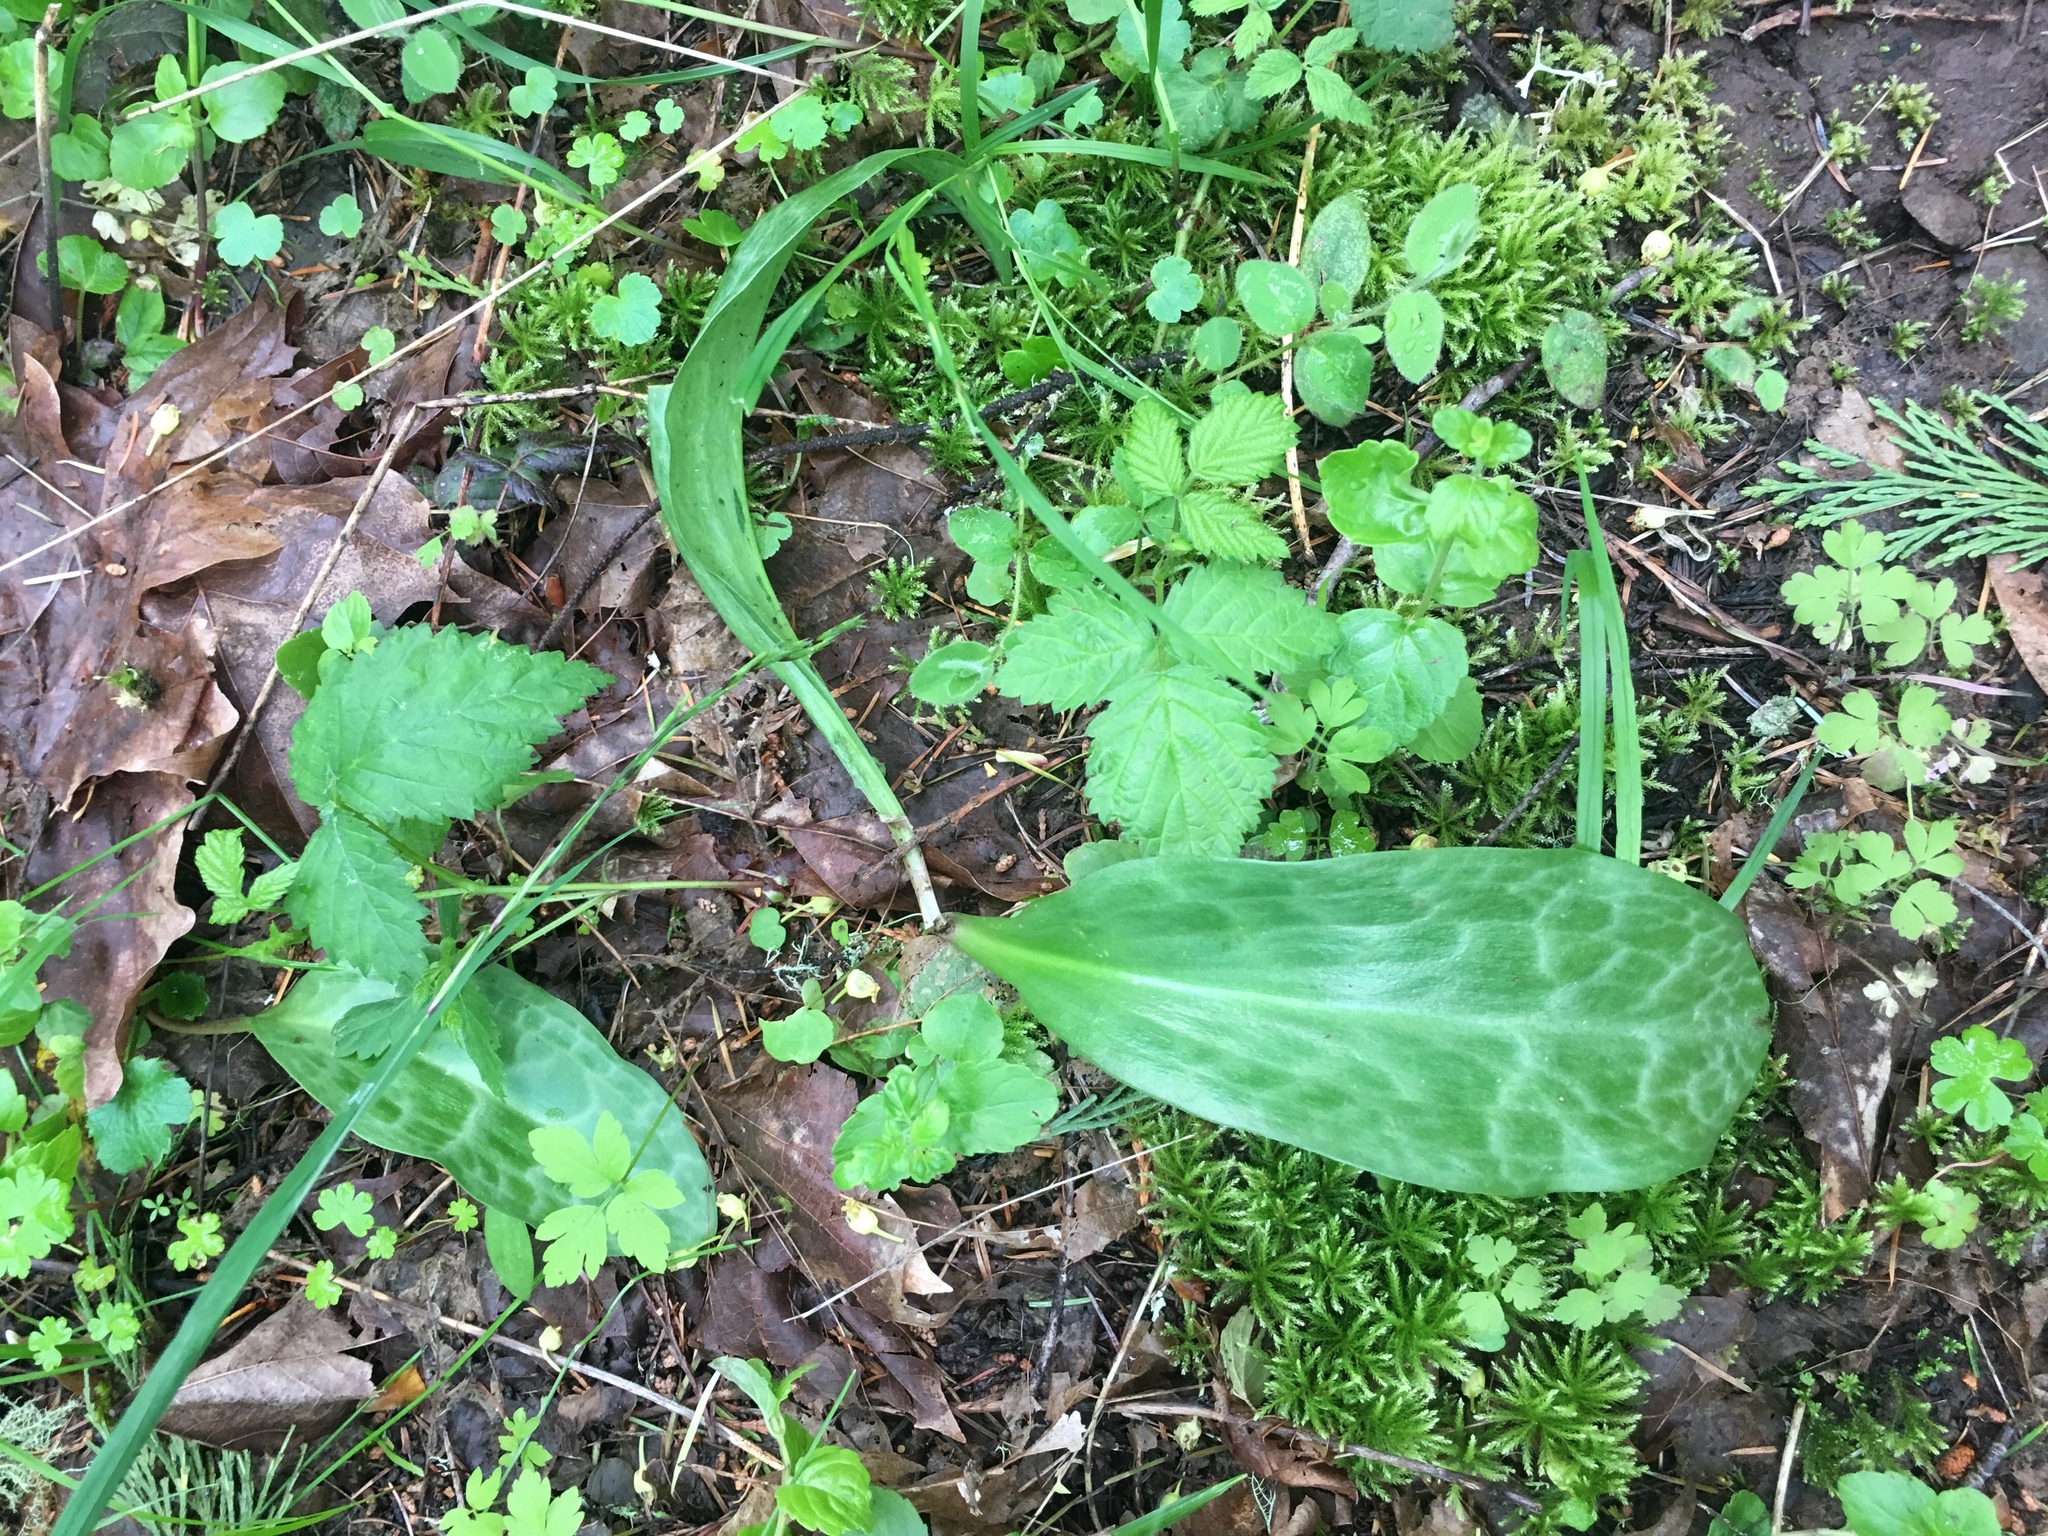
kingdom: Plantae
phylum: Tracheophyta
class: Liliopsida
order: Liliales
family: Liliaceae
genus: Erythronium
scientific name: Erythronium oregonum
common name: Giant adder's-tongue
